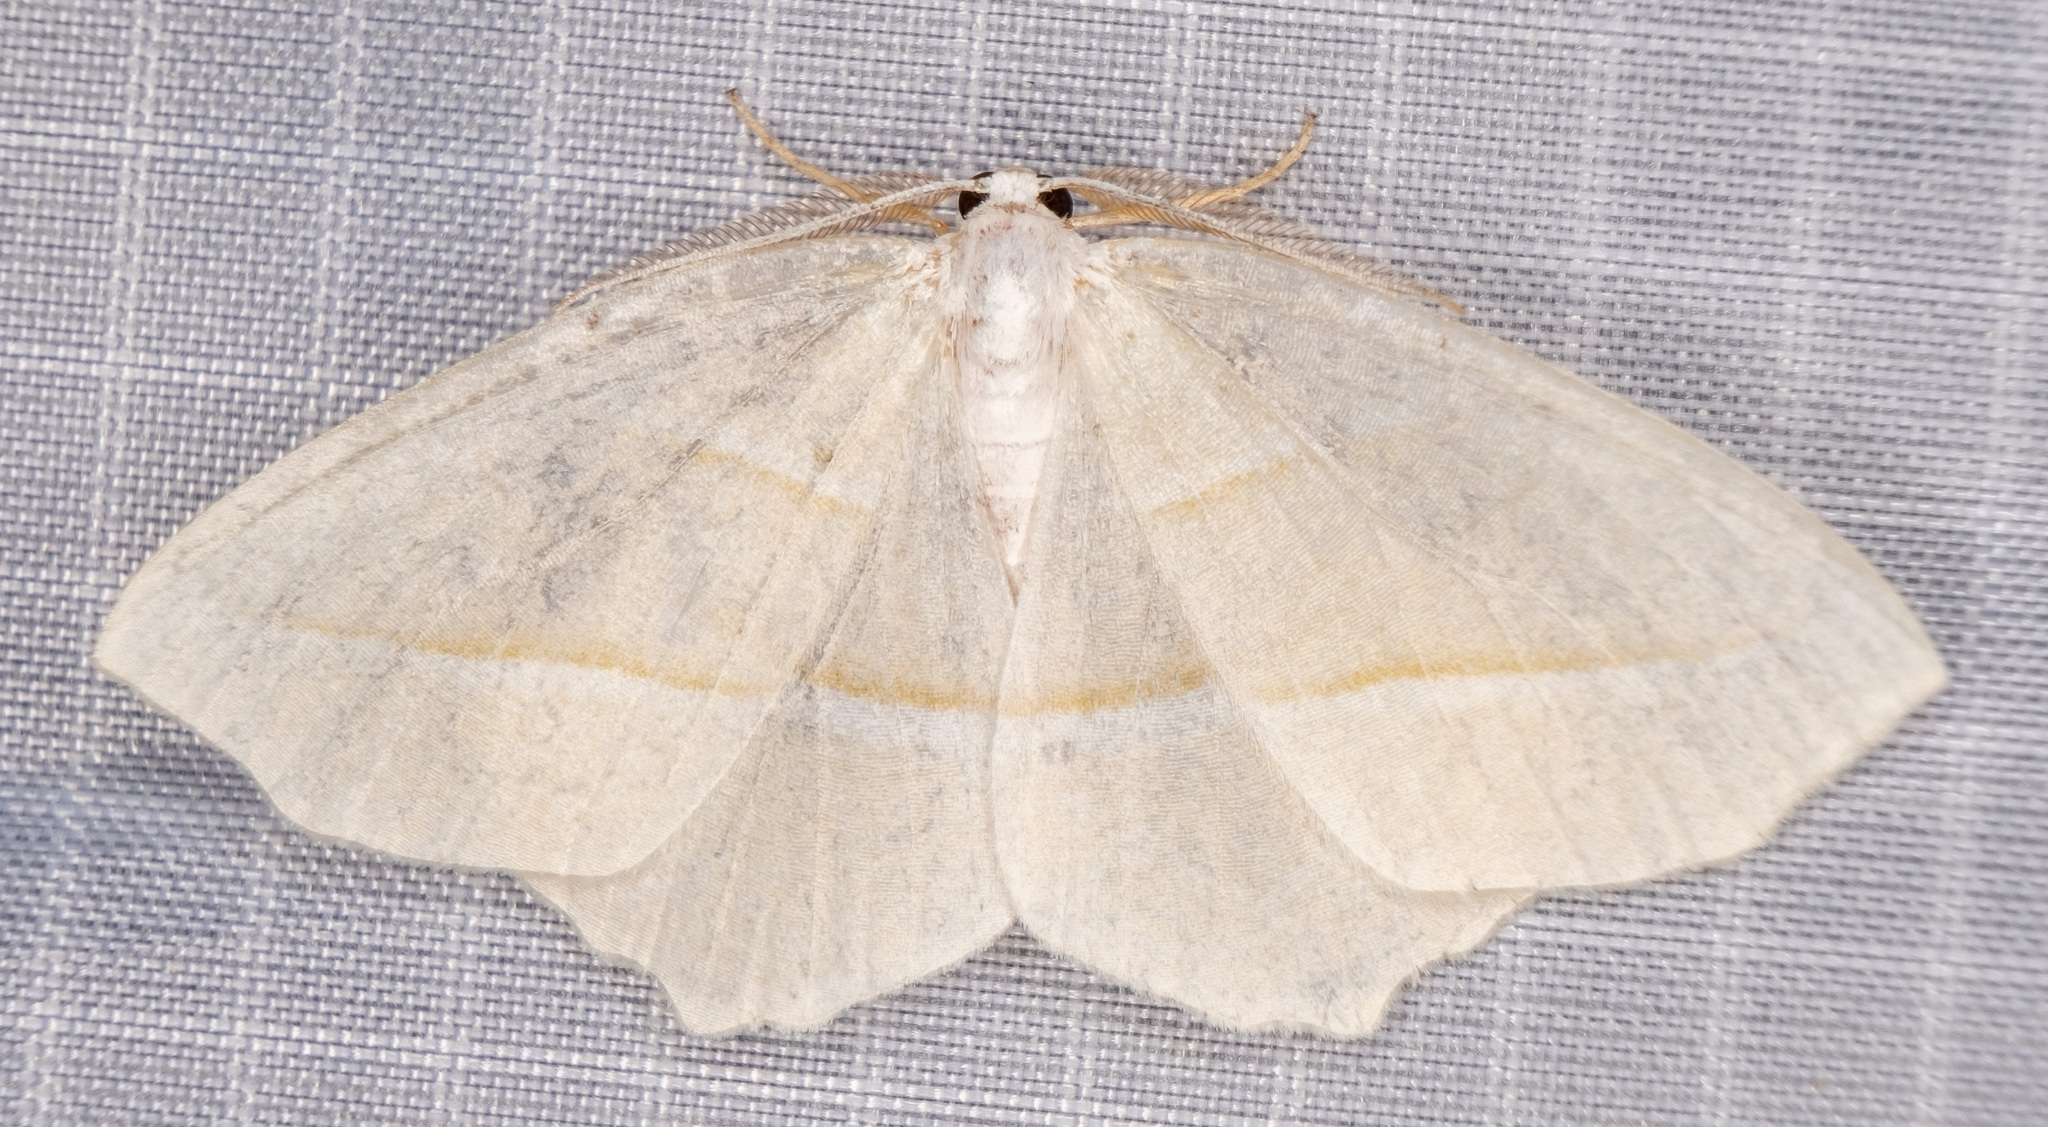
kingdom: Animalia
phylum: Arthropoda
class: Insecta
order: Lepidoptera
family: Geometridae
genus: Campaea
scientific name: Campaea perlata
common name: Fringed looper
